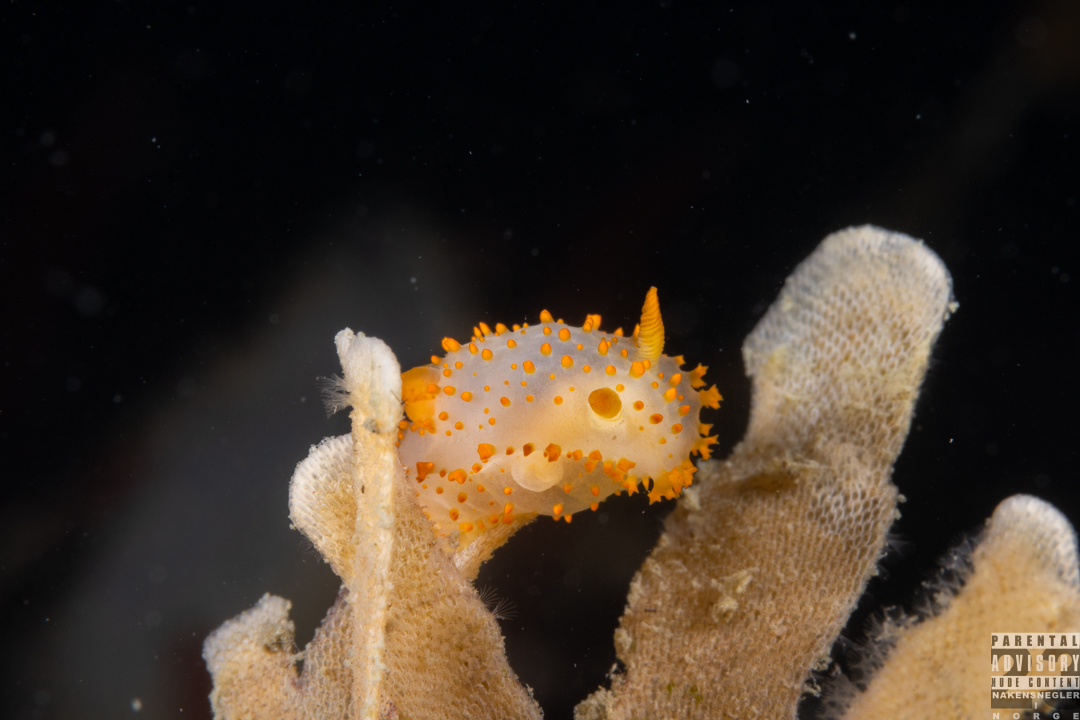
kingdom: Animalia
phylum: Mollusca
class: Gastropoda
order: Nudibranchia
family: Polyceridae
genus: Crimora
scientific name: Crimora papillata
